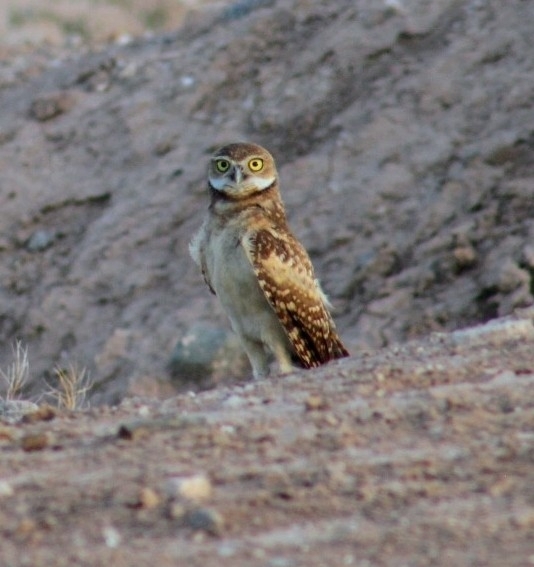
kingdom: Animalia
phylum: Chordata
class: Aves
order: Strigiformes
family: Strigidae
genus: Athene
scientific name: Athene cunicularia
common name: Burrowing owl
